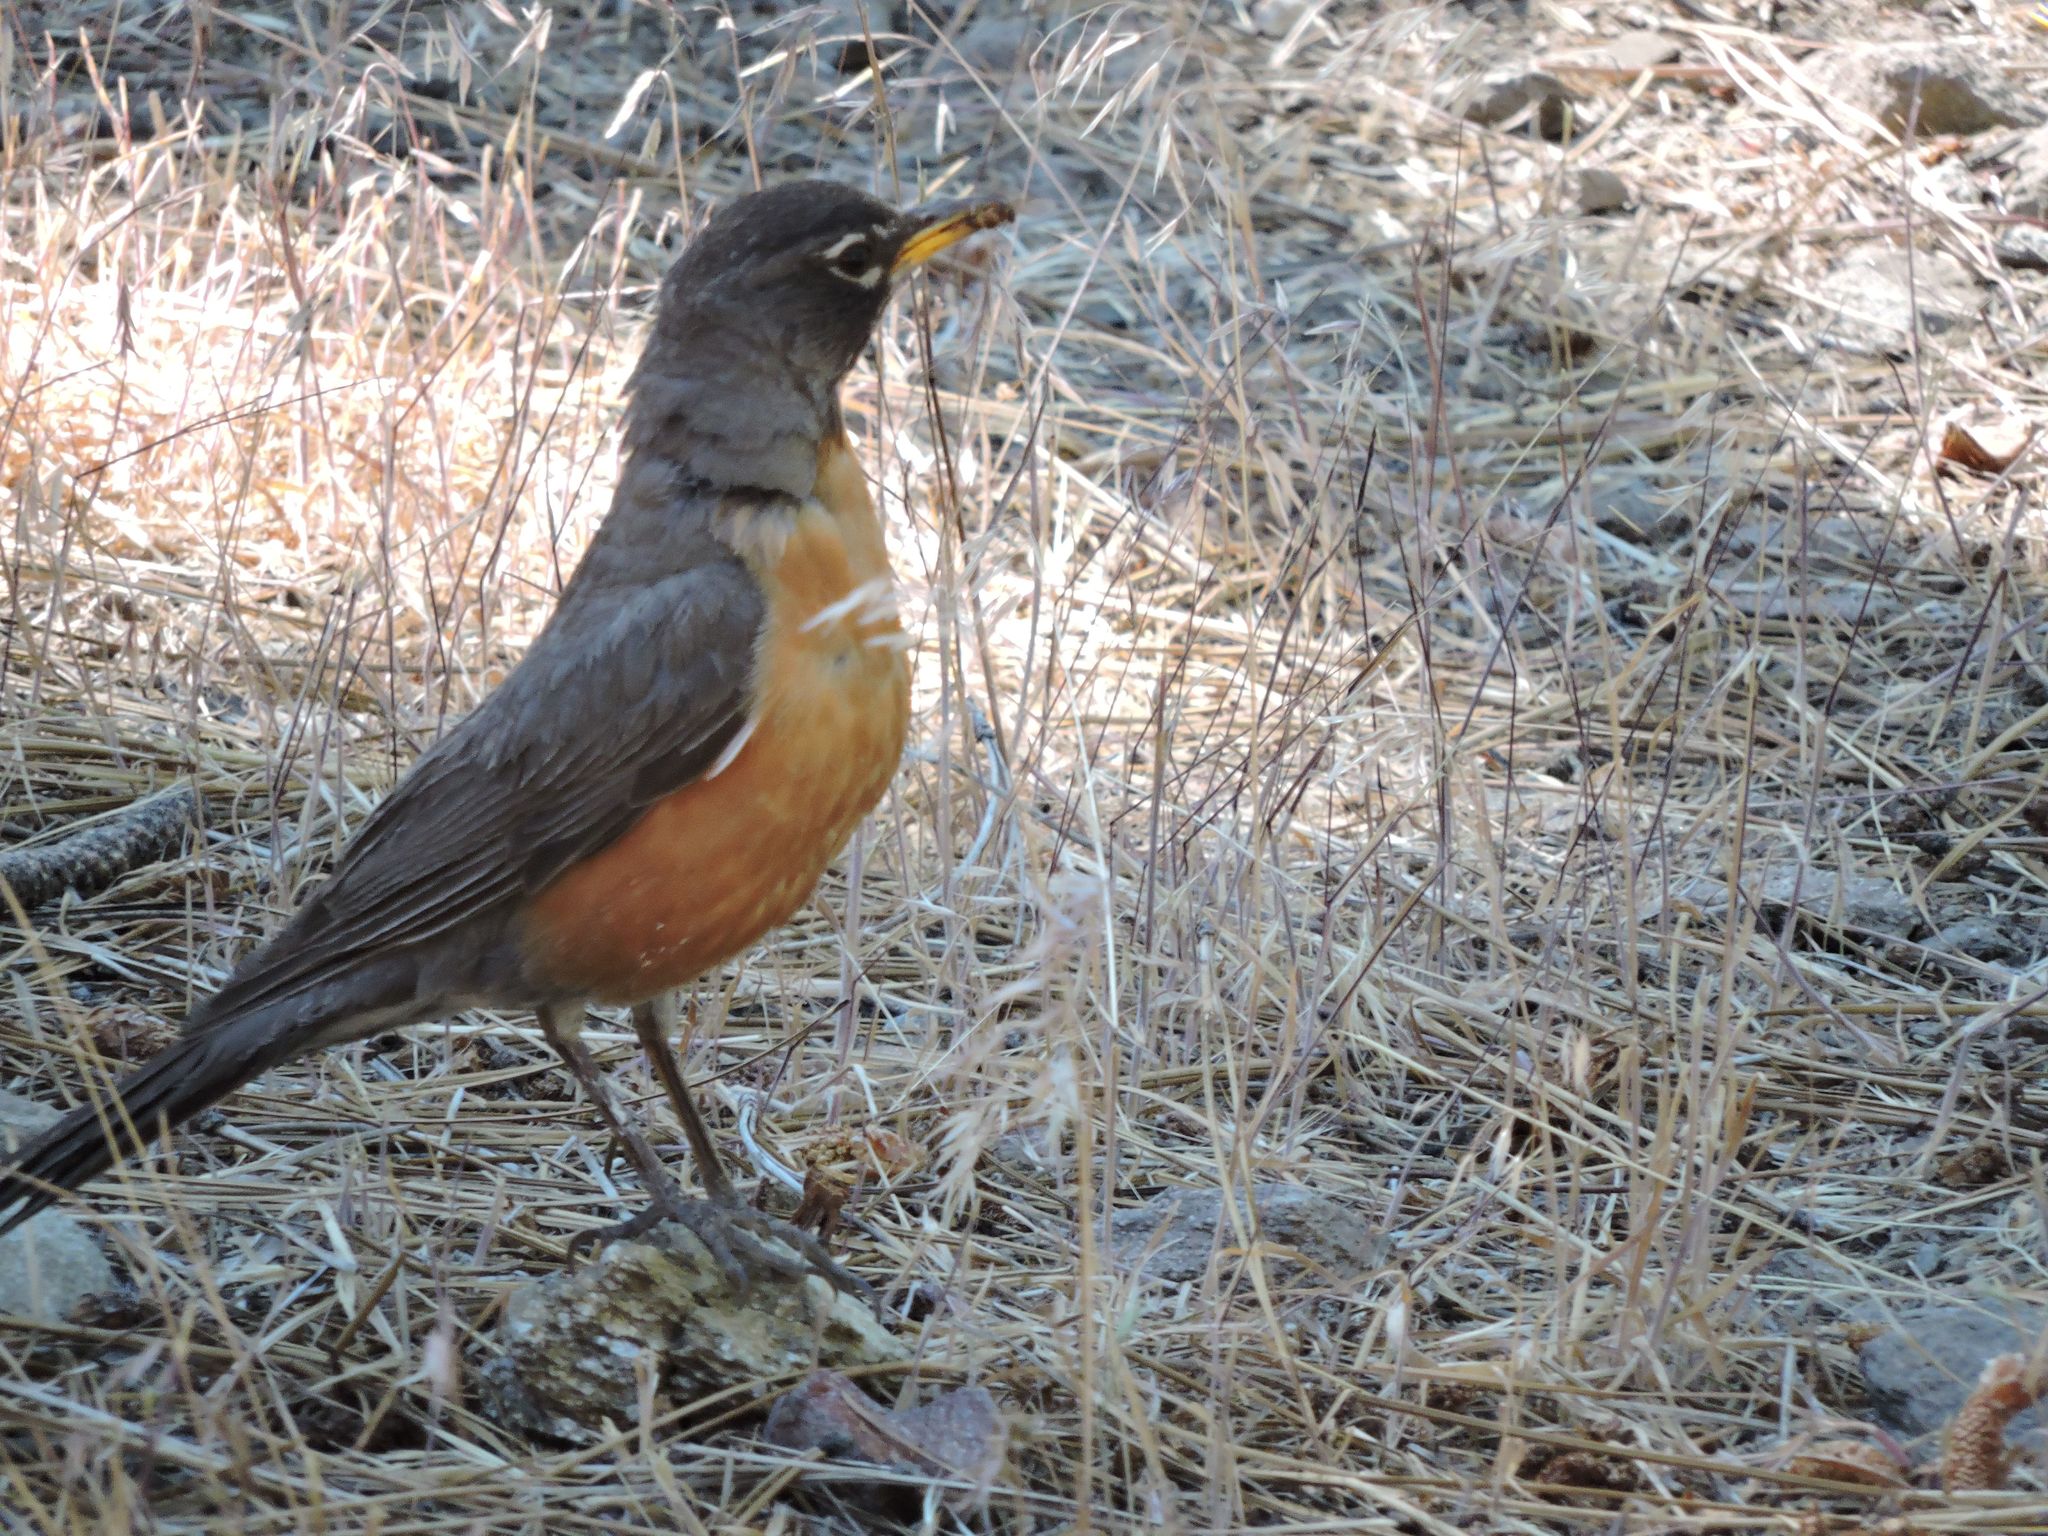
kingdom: Animalia
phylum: Chordata
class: Aves
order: Passeriformes
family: Turdidae
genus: Turdus
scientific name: Turdus migratorius
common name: American robin
